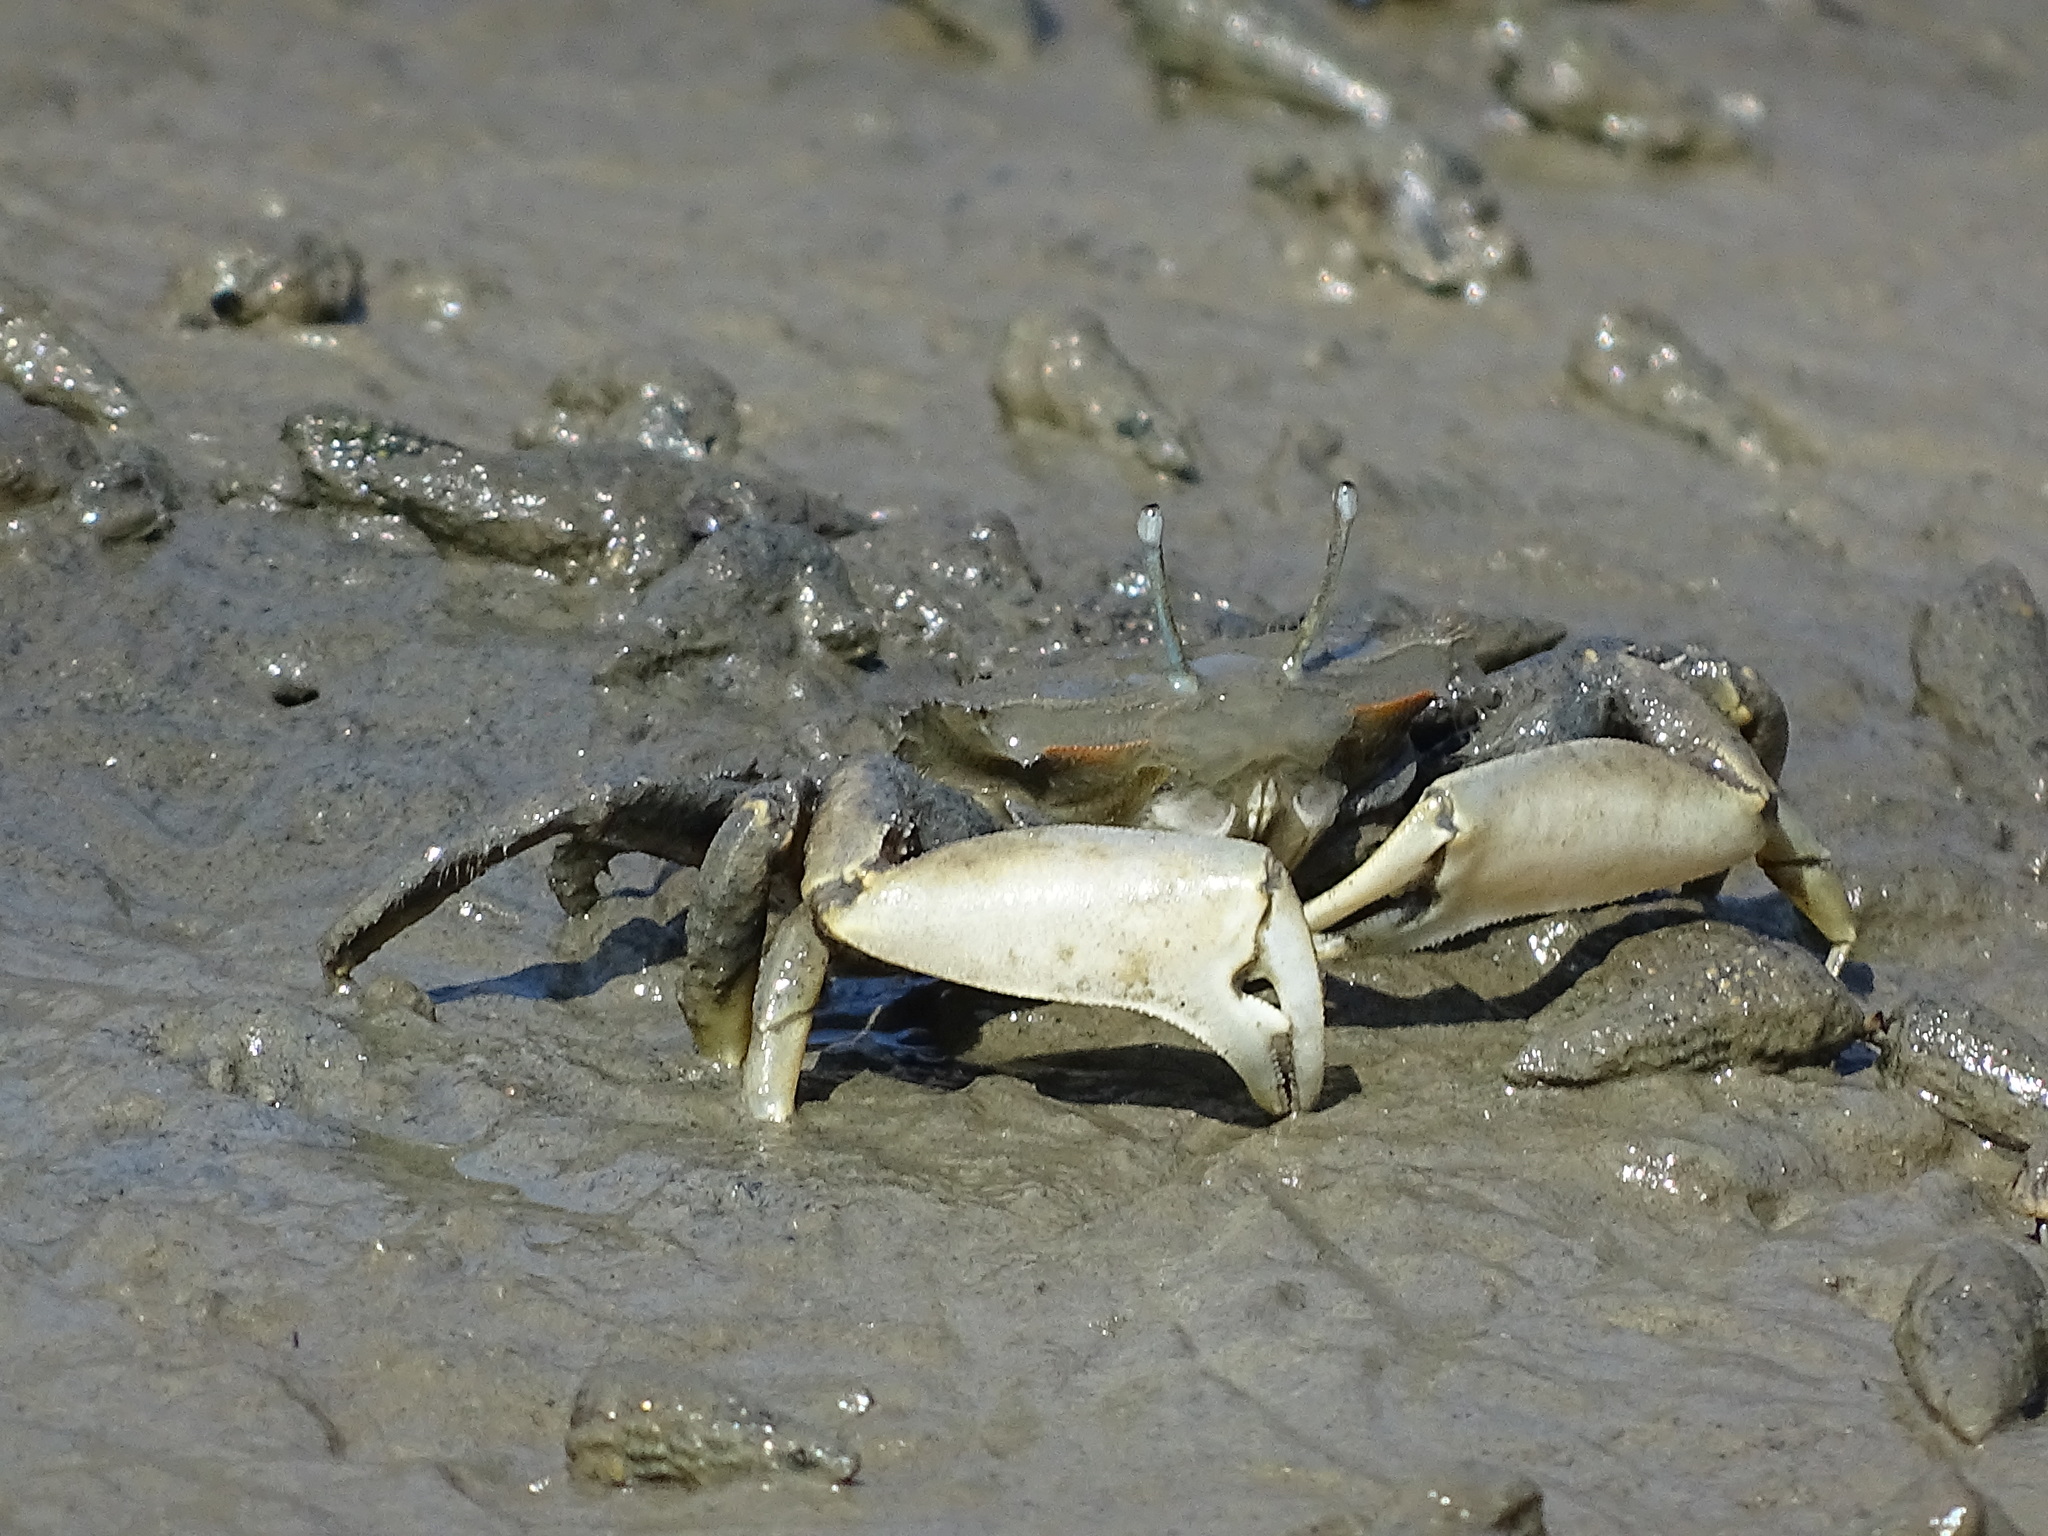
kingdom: Animalia
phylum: Arthropoda
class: Malacostraca
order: Decapoda
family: Macrophthalmidae
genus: Macrophthalmus
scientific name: Macrophthalmus banzai
